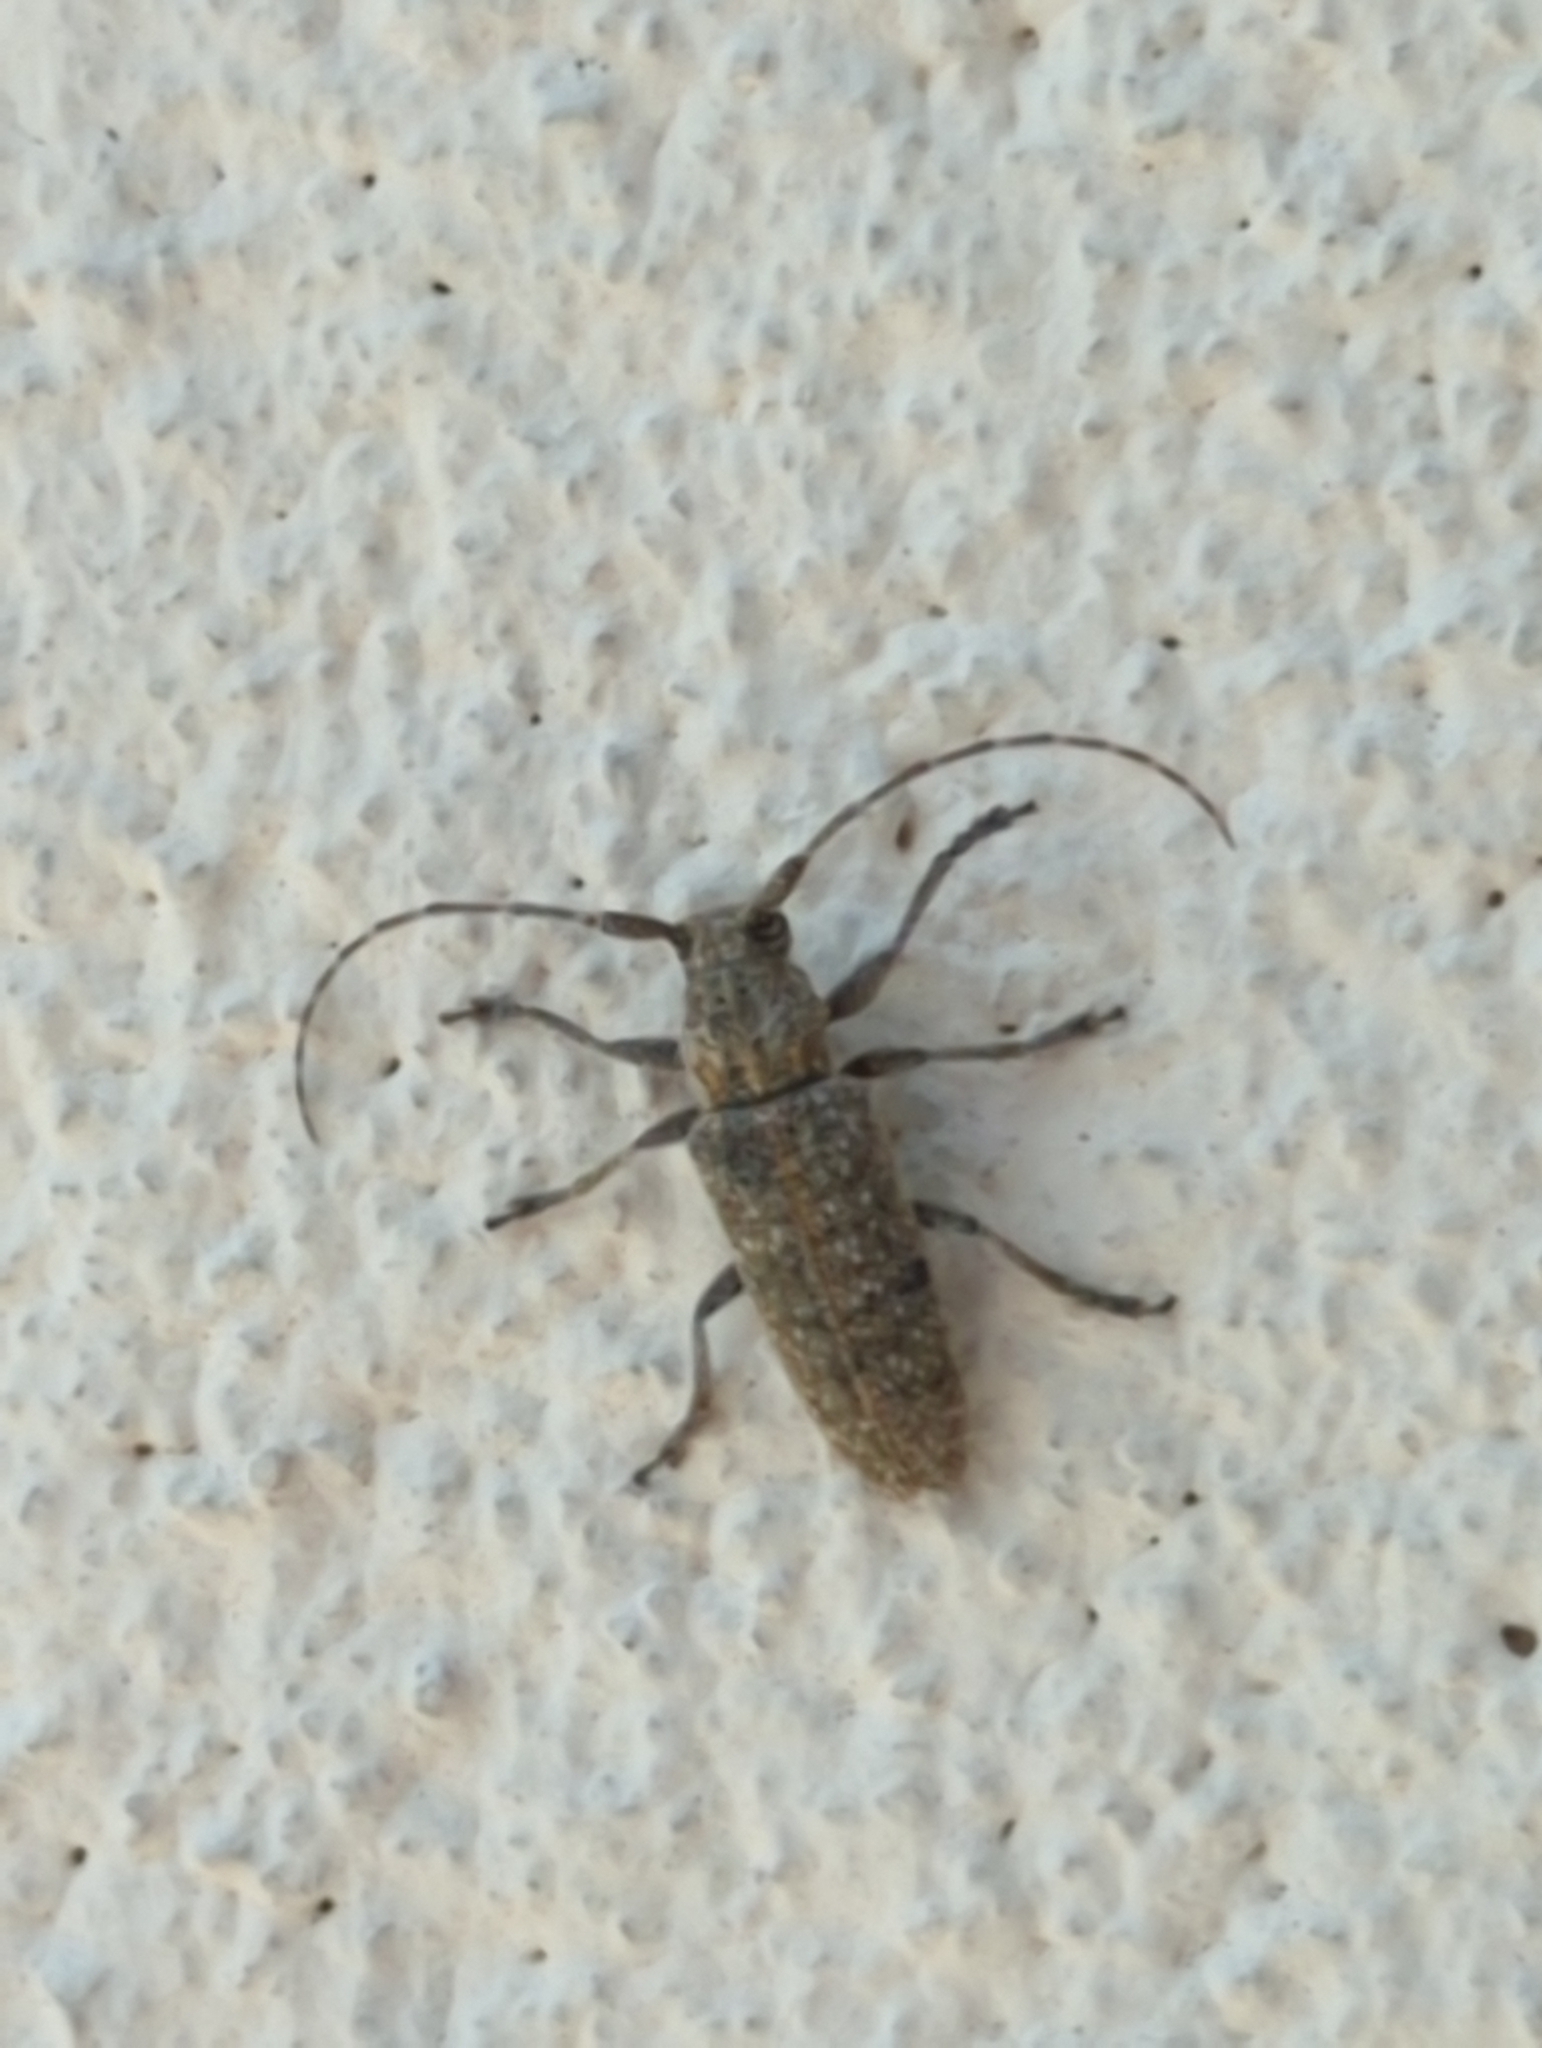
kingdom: Animalia
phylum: Arthropoda
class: Insecta
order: Coleoptera
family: Cerambycidae
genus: Ataxia
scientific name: Ataxia hubbardi
